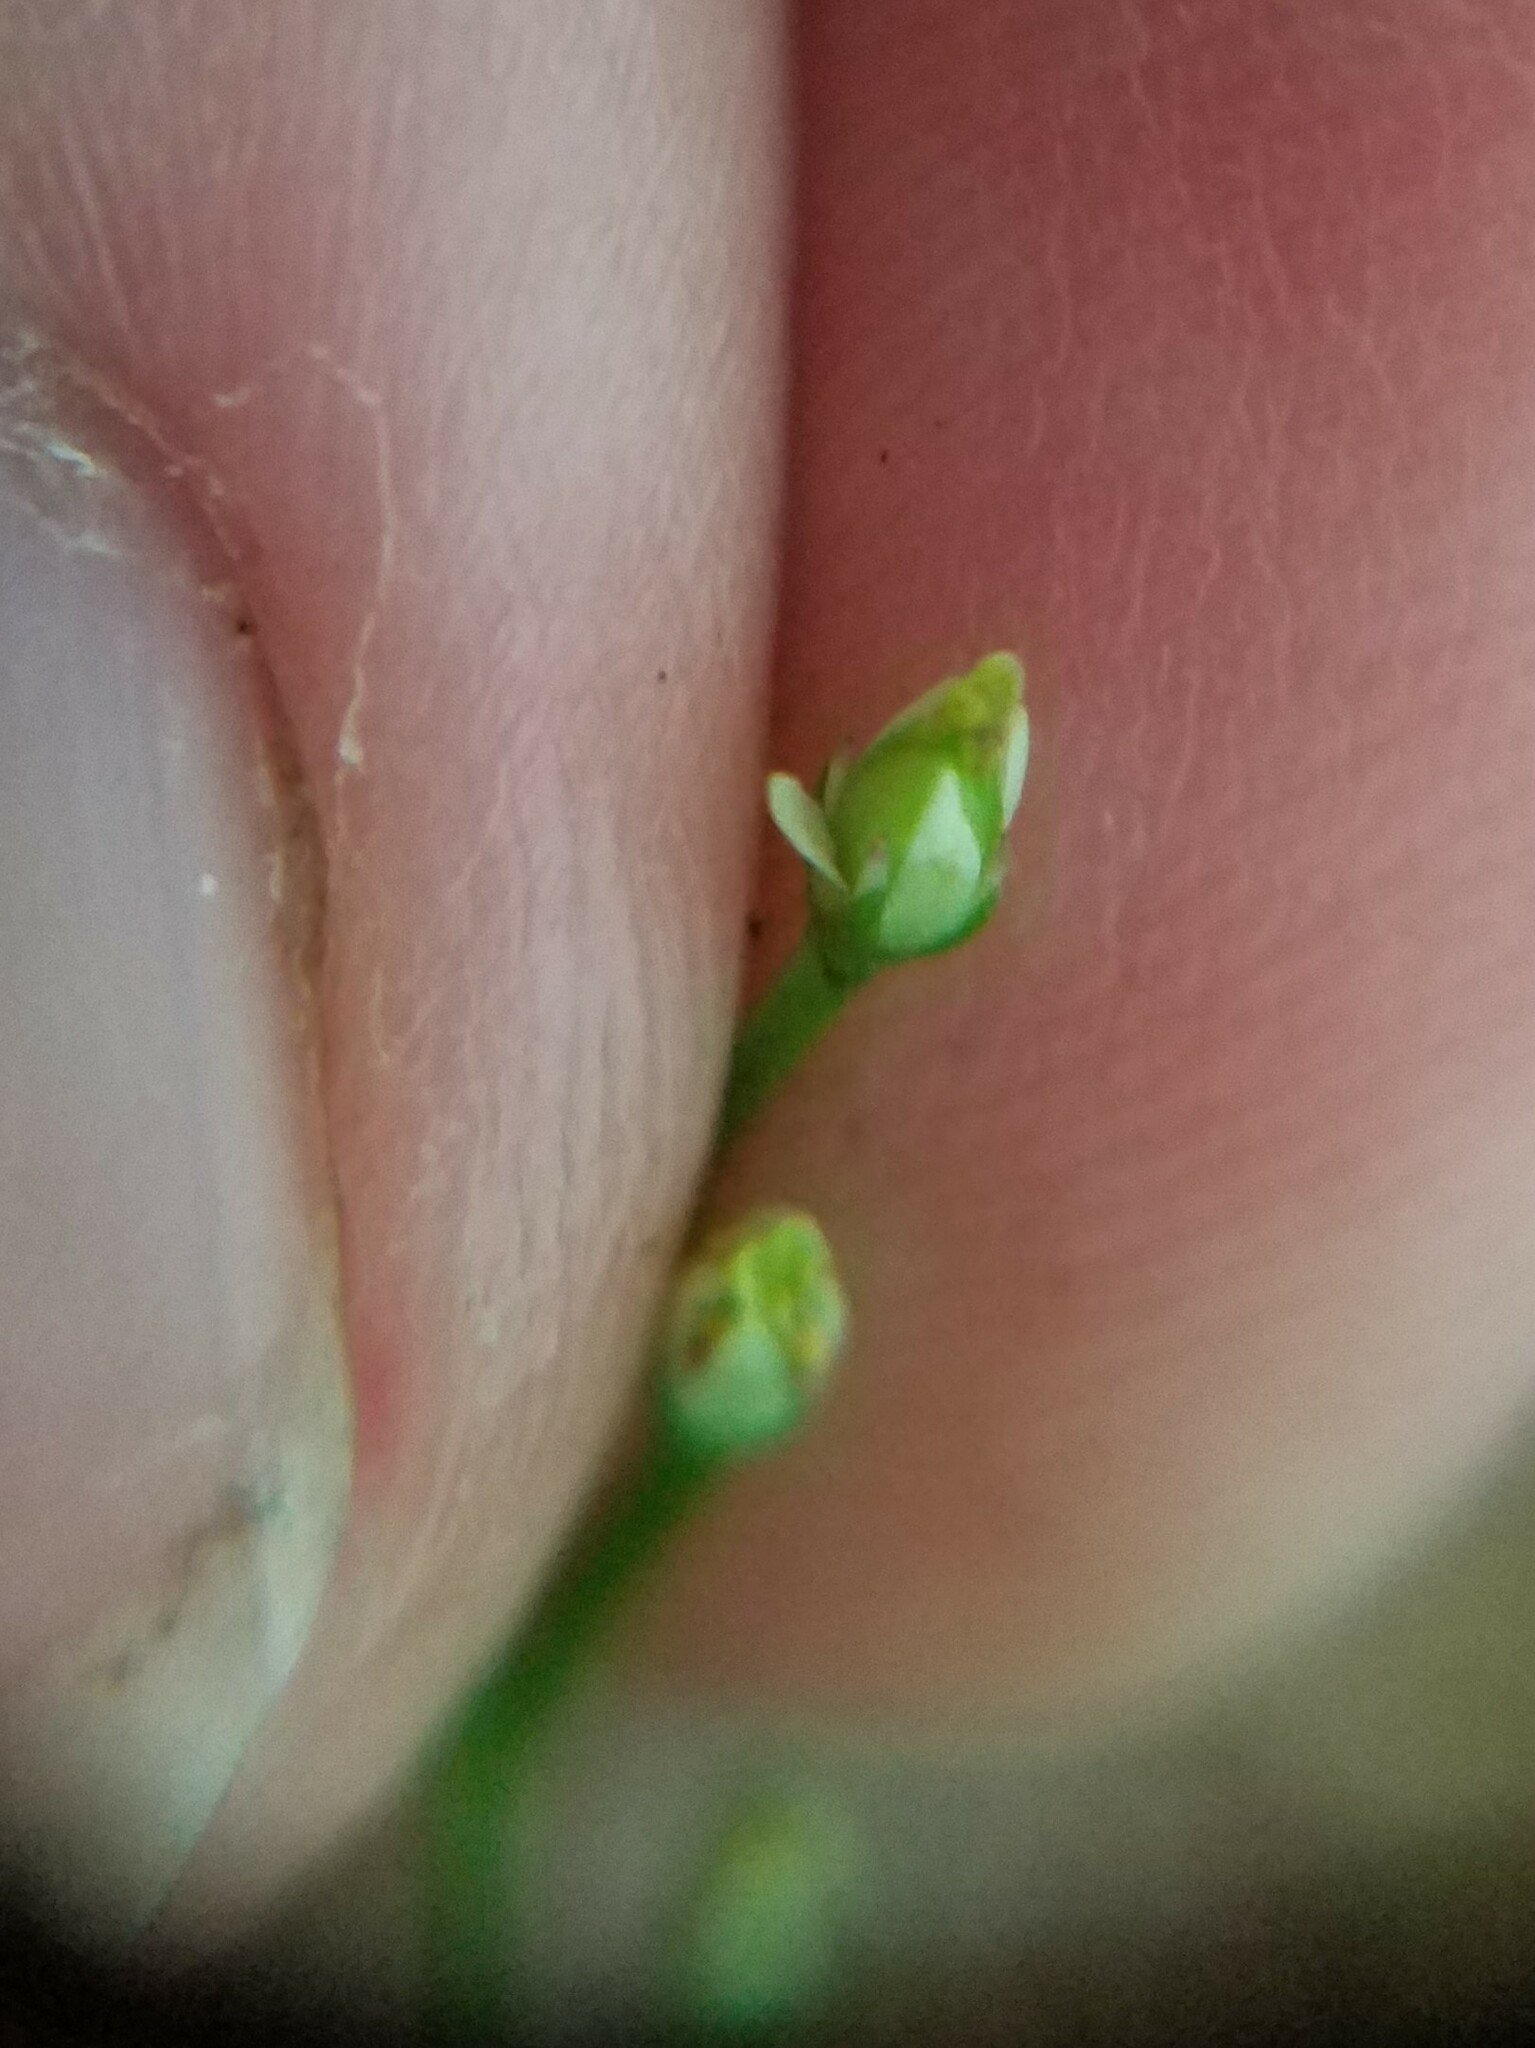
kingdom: Plantae
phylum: Tracheophyta
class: Magnoliopsida
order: Gentianales
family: Gentianaceae
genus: Bartonia
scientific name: Bartonia paniculata
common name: Branched bartonia
